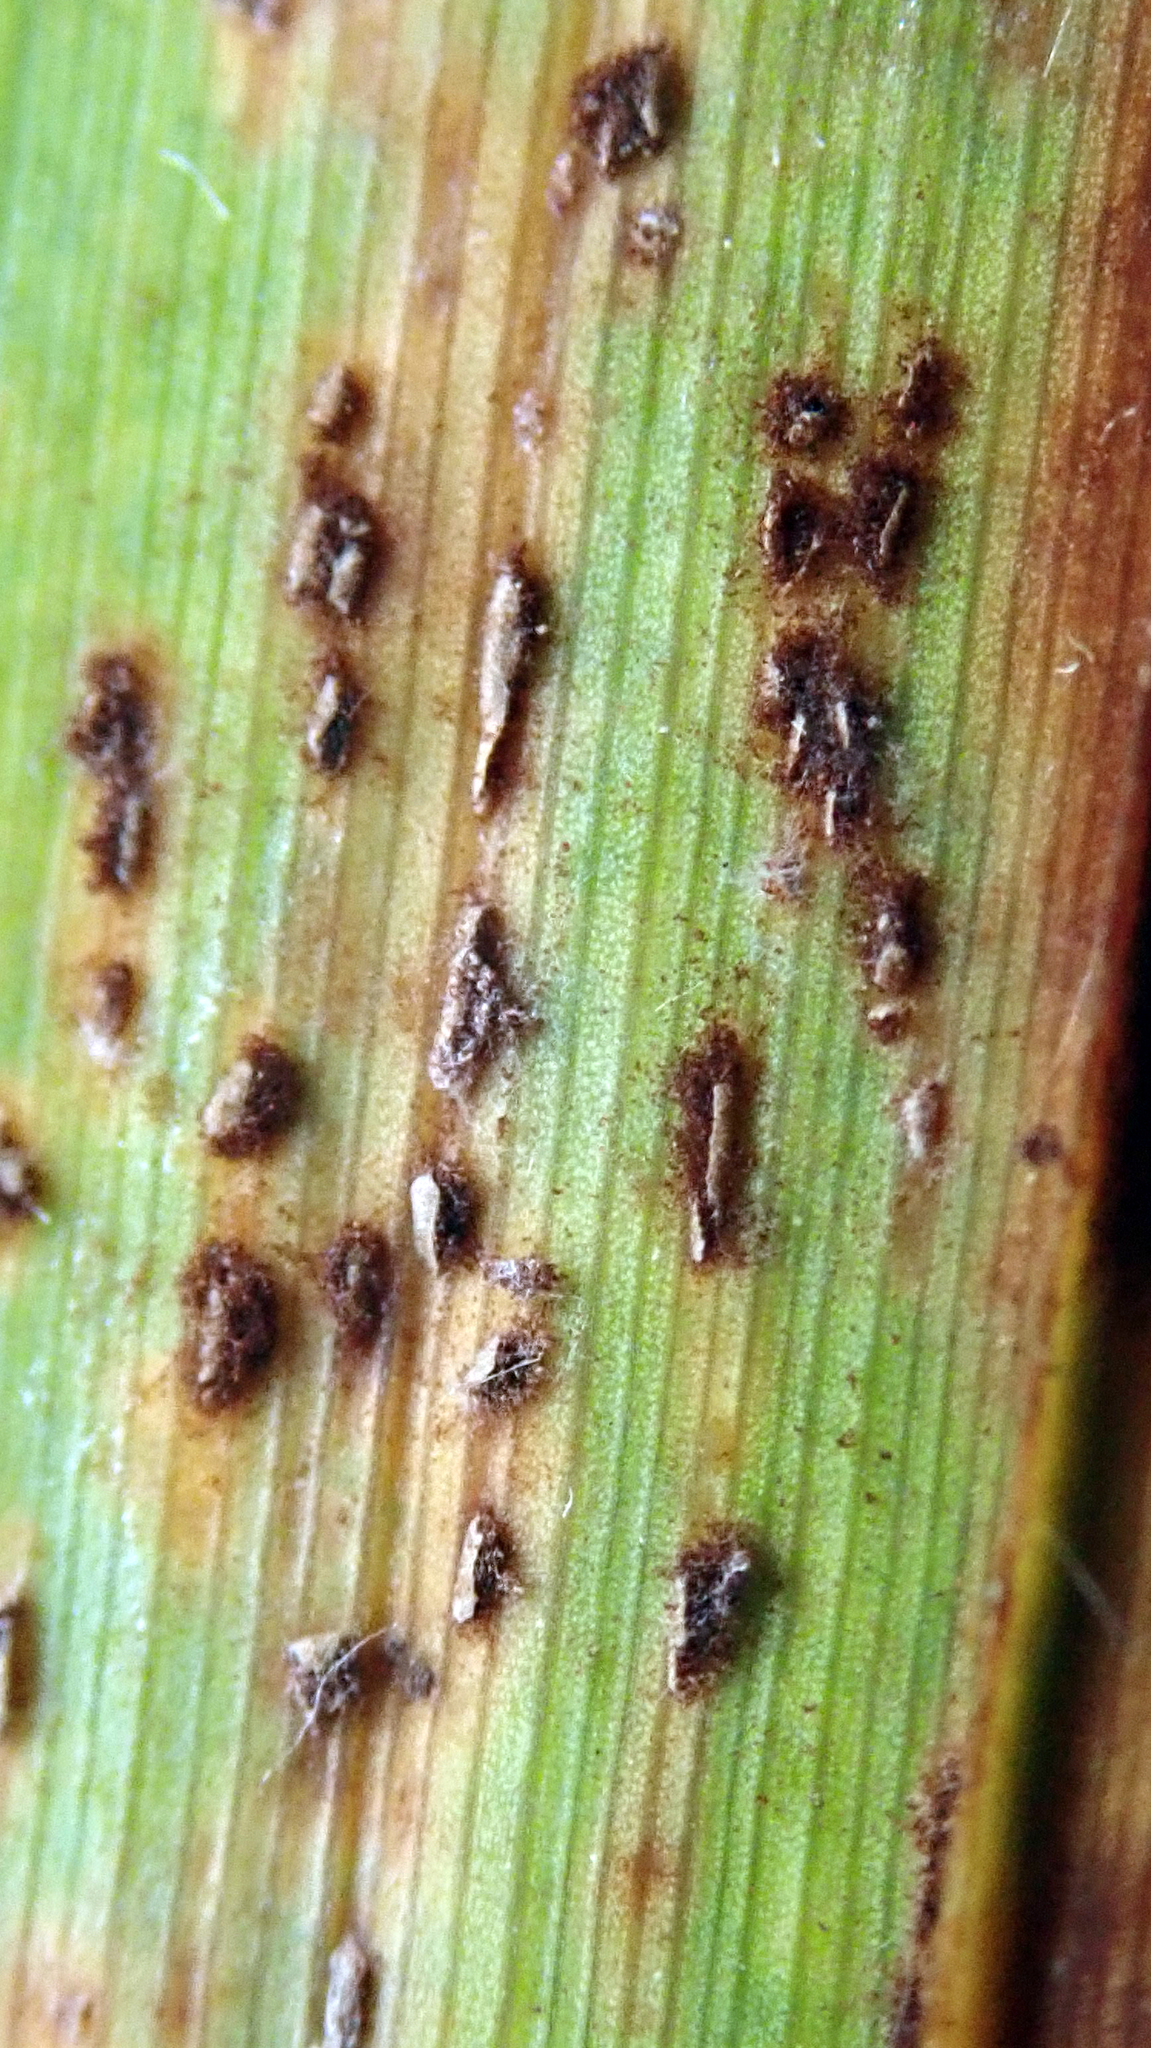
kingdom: Fungi
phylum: Basidiomycota
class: Pucciniomycetes
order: Pucciniales
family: Pucciniaceae
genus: Puccinia
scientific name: Puccinia urticata
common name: Nettle clustercup rust fungus
